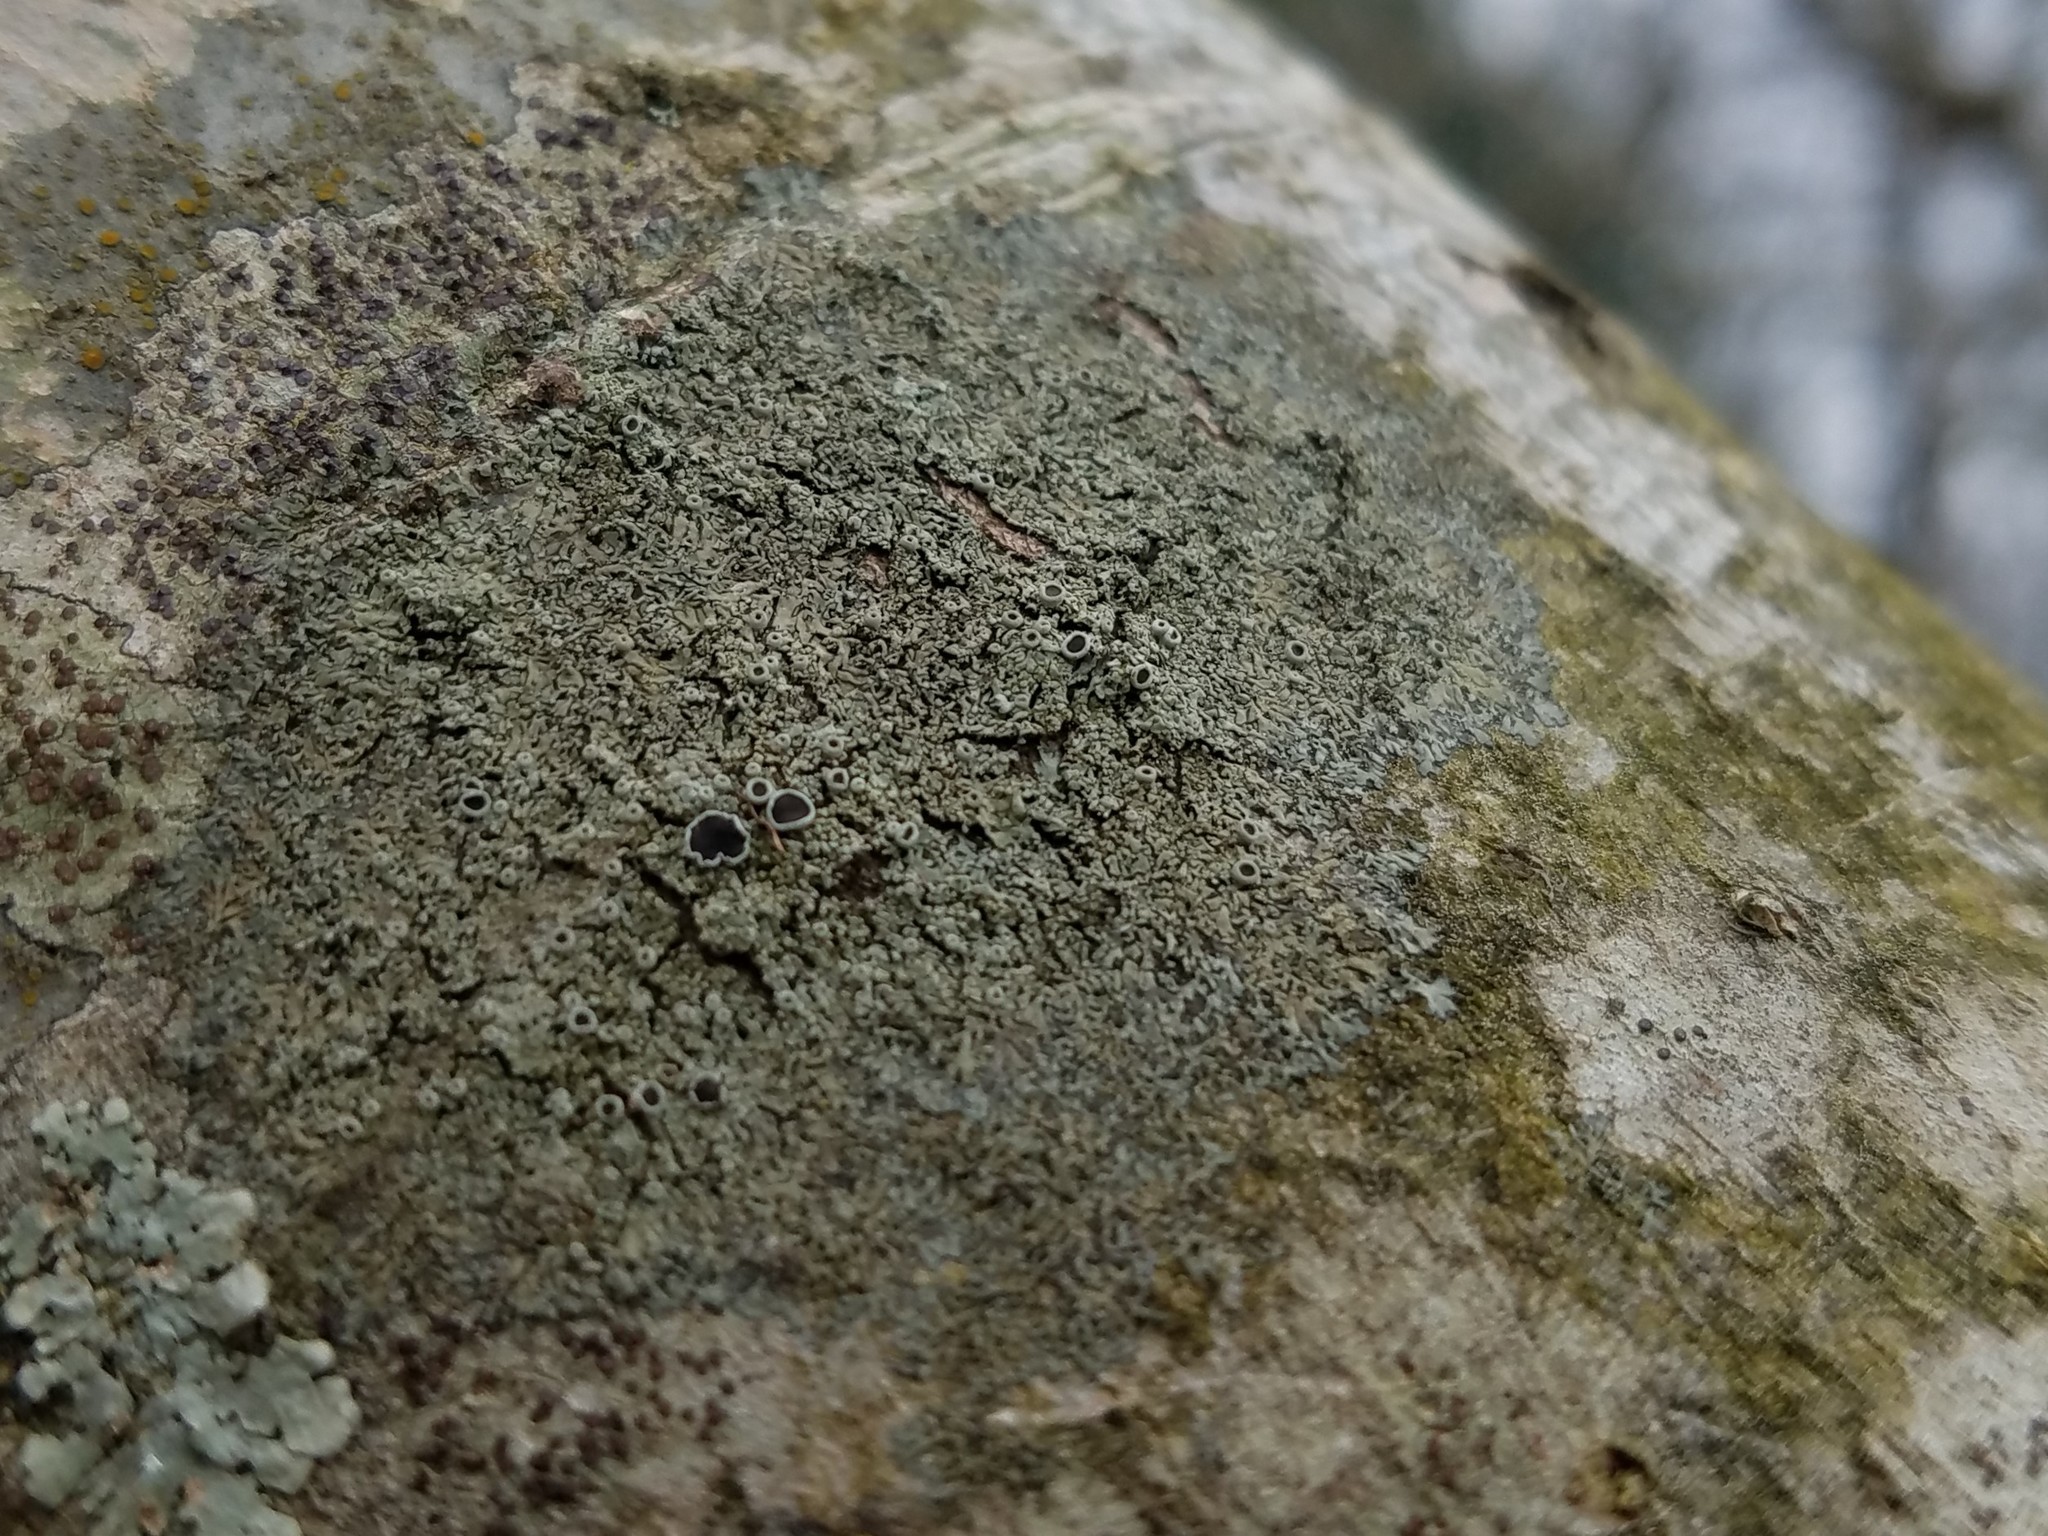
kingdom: Fungi
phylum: Ascomycota
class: Lecanoromycetes
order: Caliciales
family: Physciaceae
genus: Hyperphyscia
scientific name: Hyperphyscia syncolla
